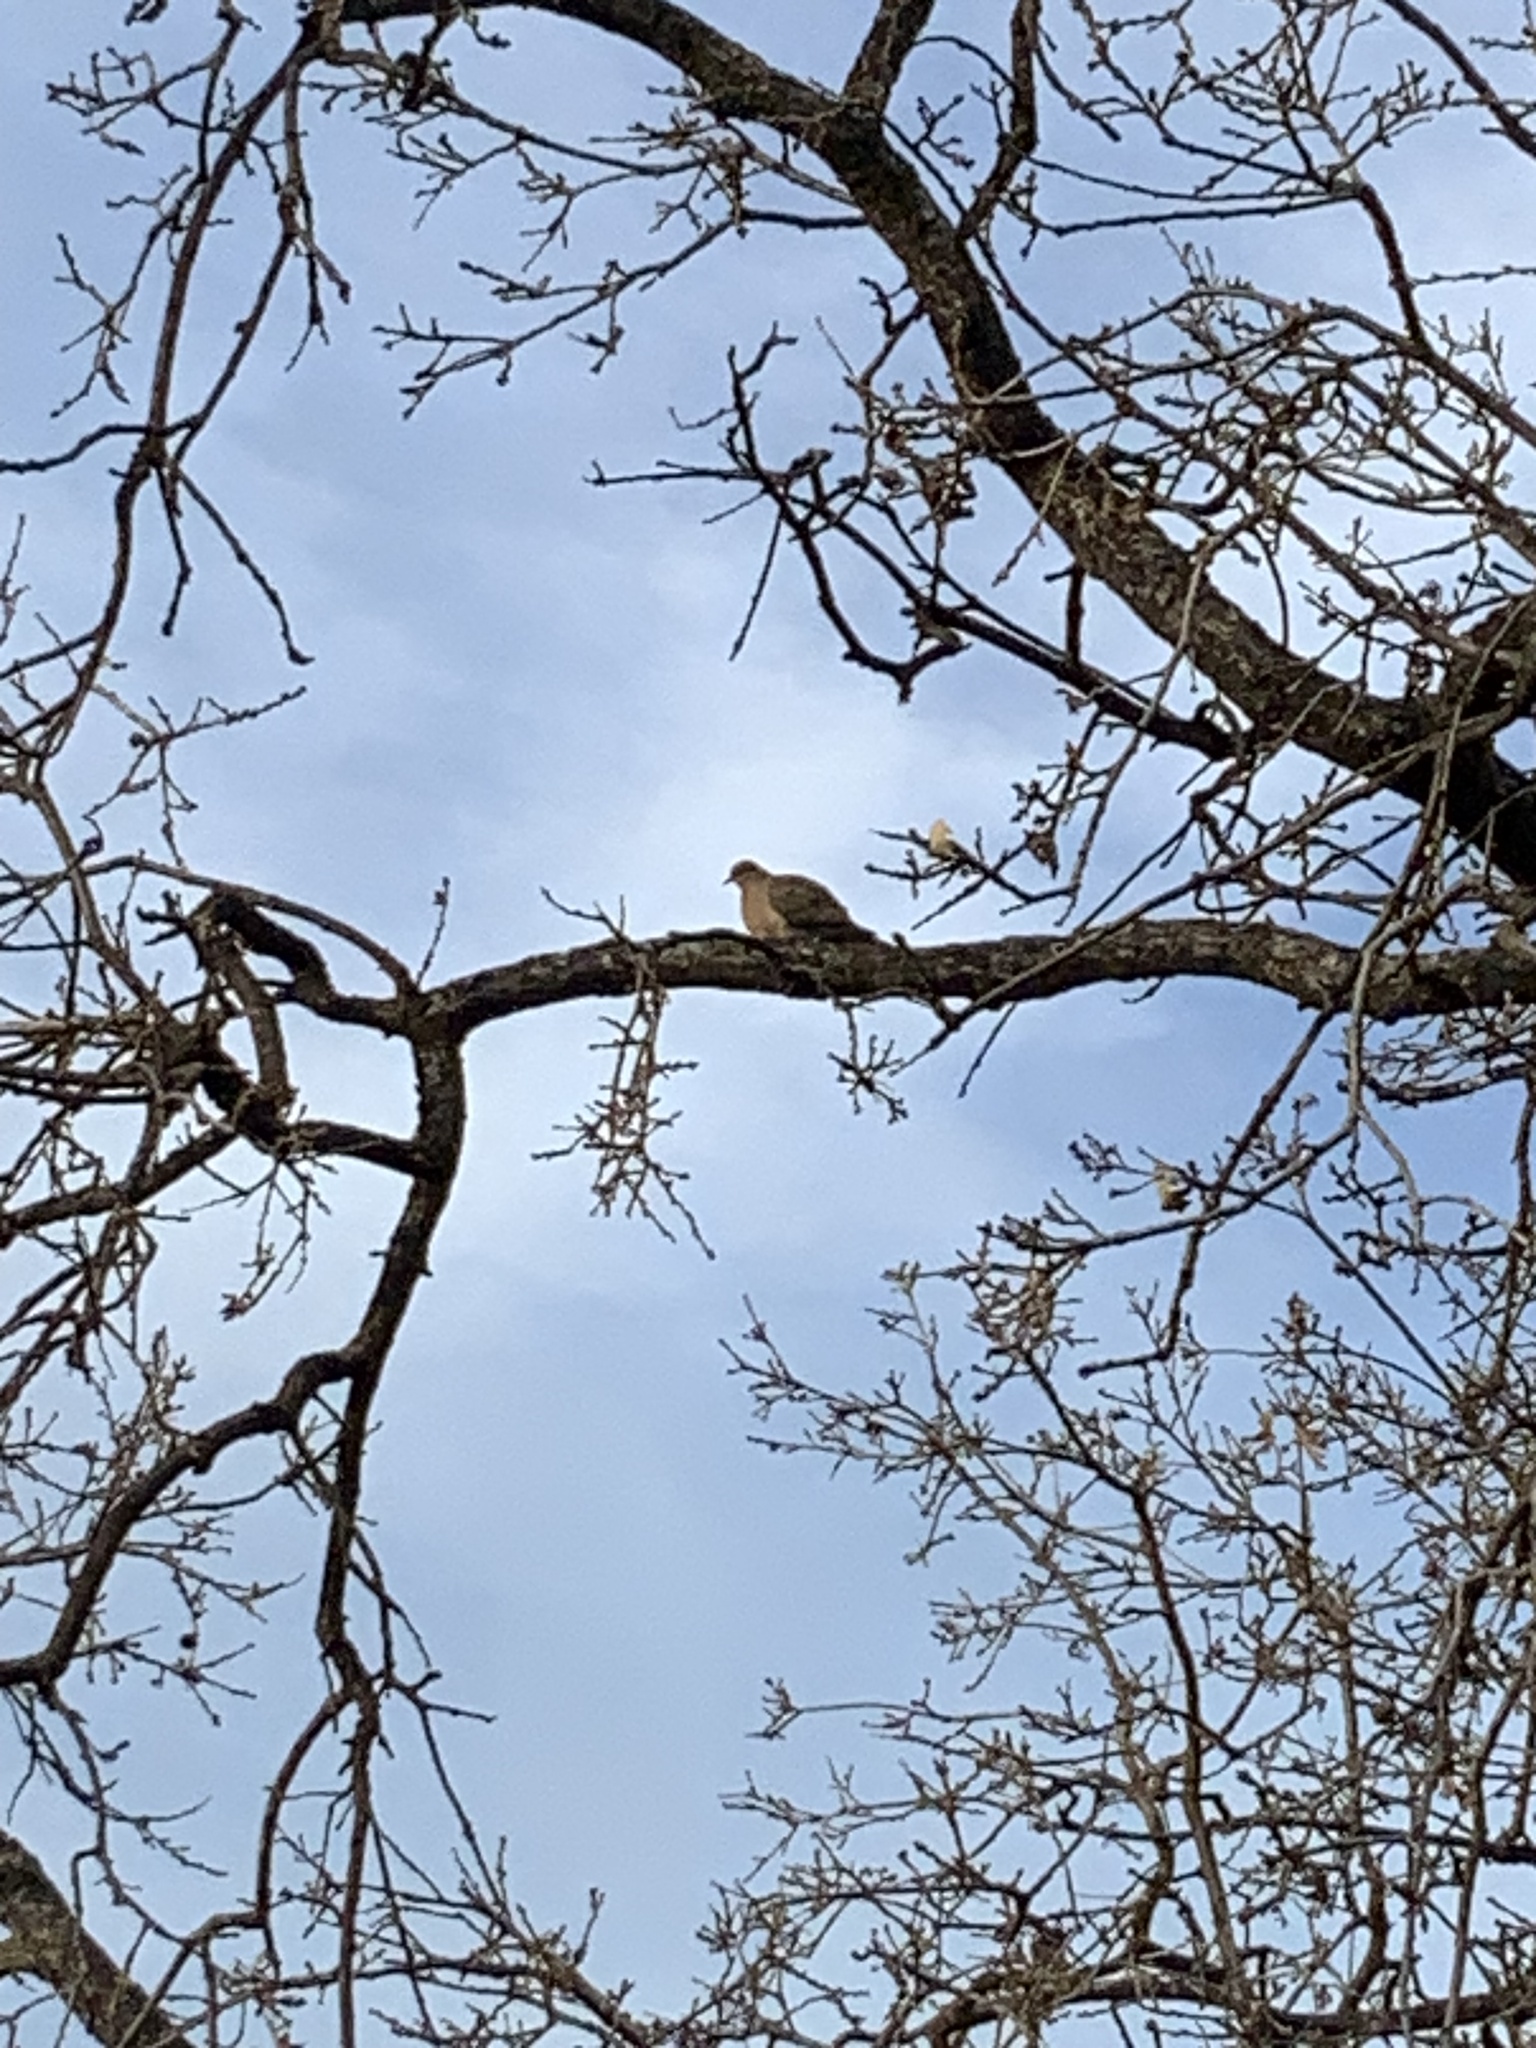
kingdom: Animalia
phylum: Chordata
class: Aves
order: Columbiformes
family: Columbidae
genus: Zenaida
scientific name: Zenaida macroura
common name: Mourning dove
